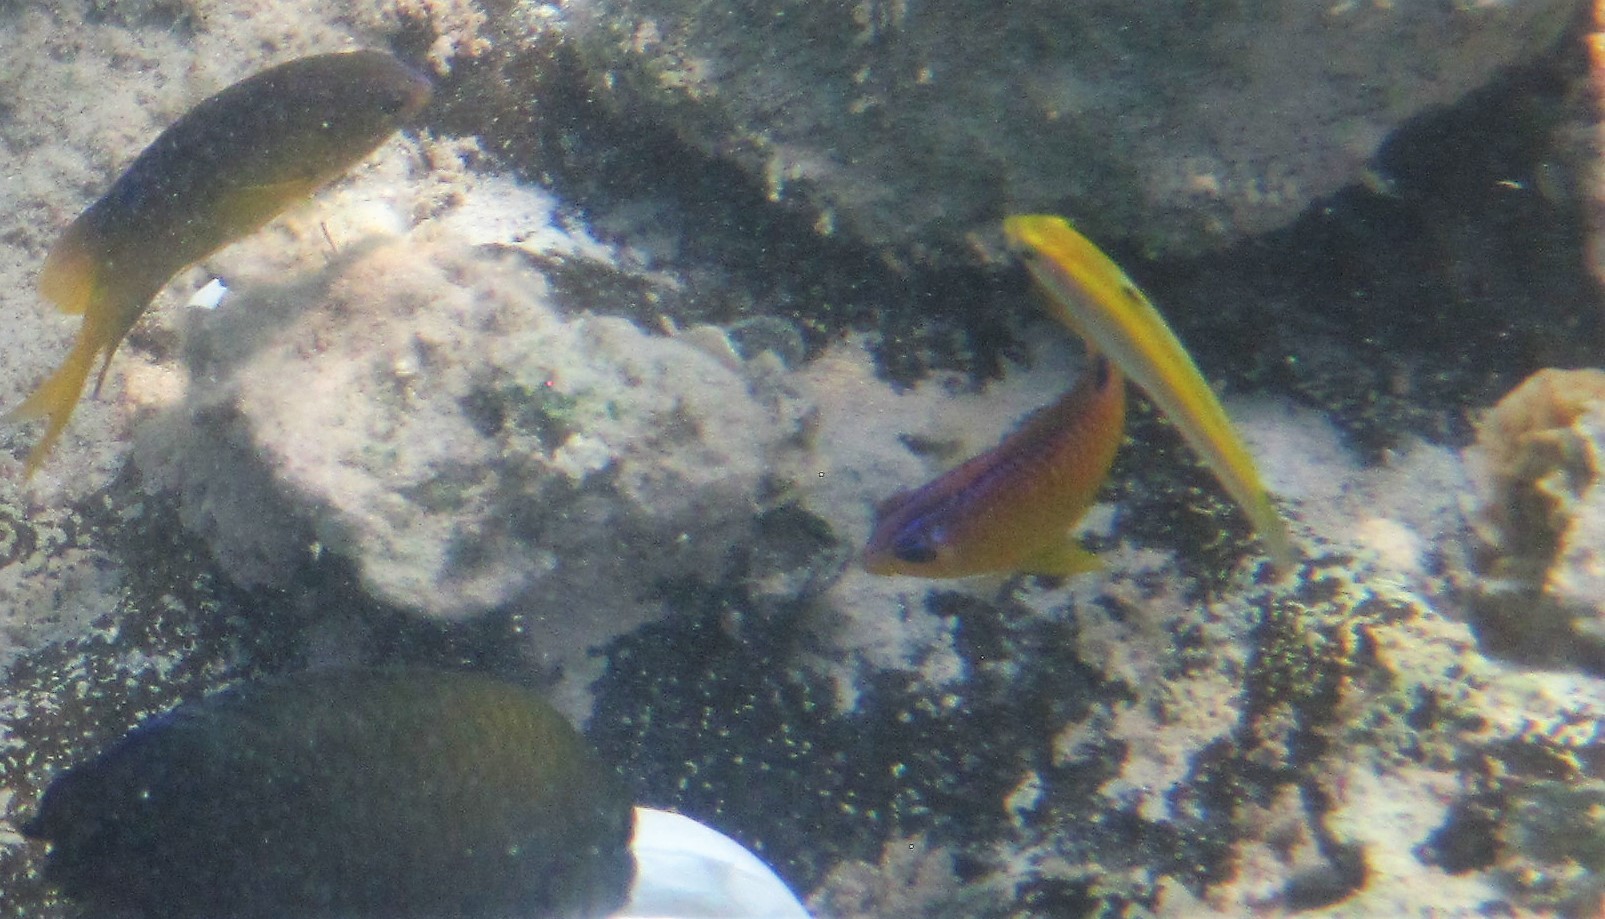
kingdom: Animalia
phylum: Chordata
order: Perciformes
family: Pomacentridae
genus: Stegastes
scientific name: Stegastes diencaeus
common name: Longfin damselfish
